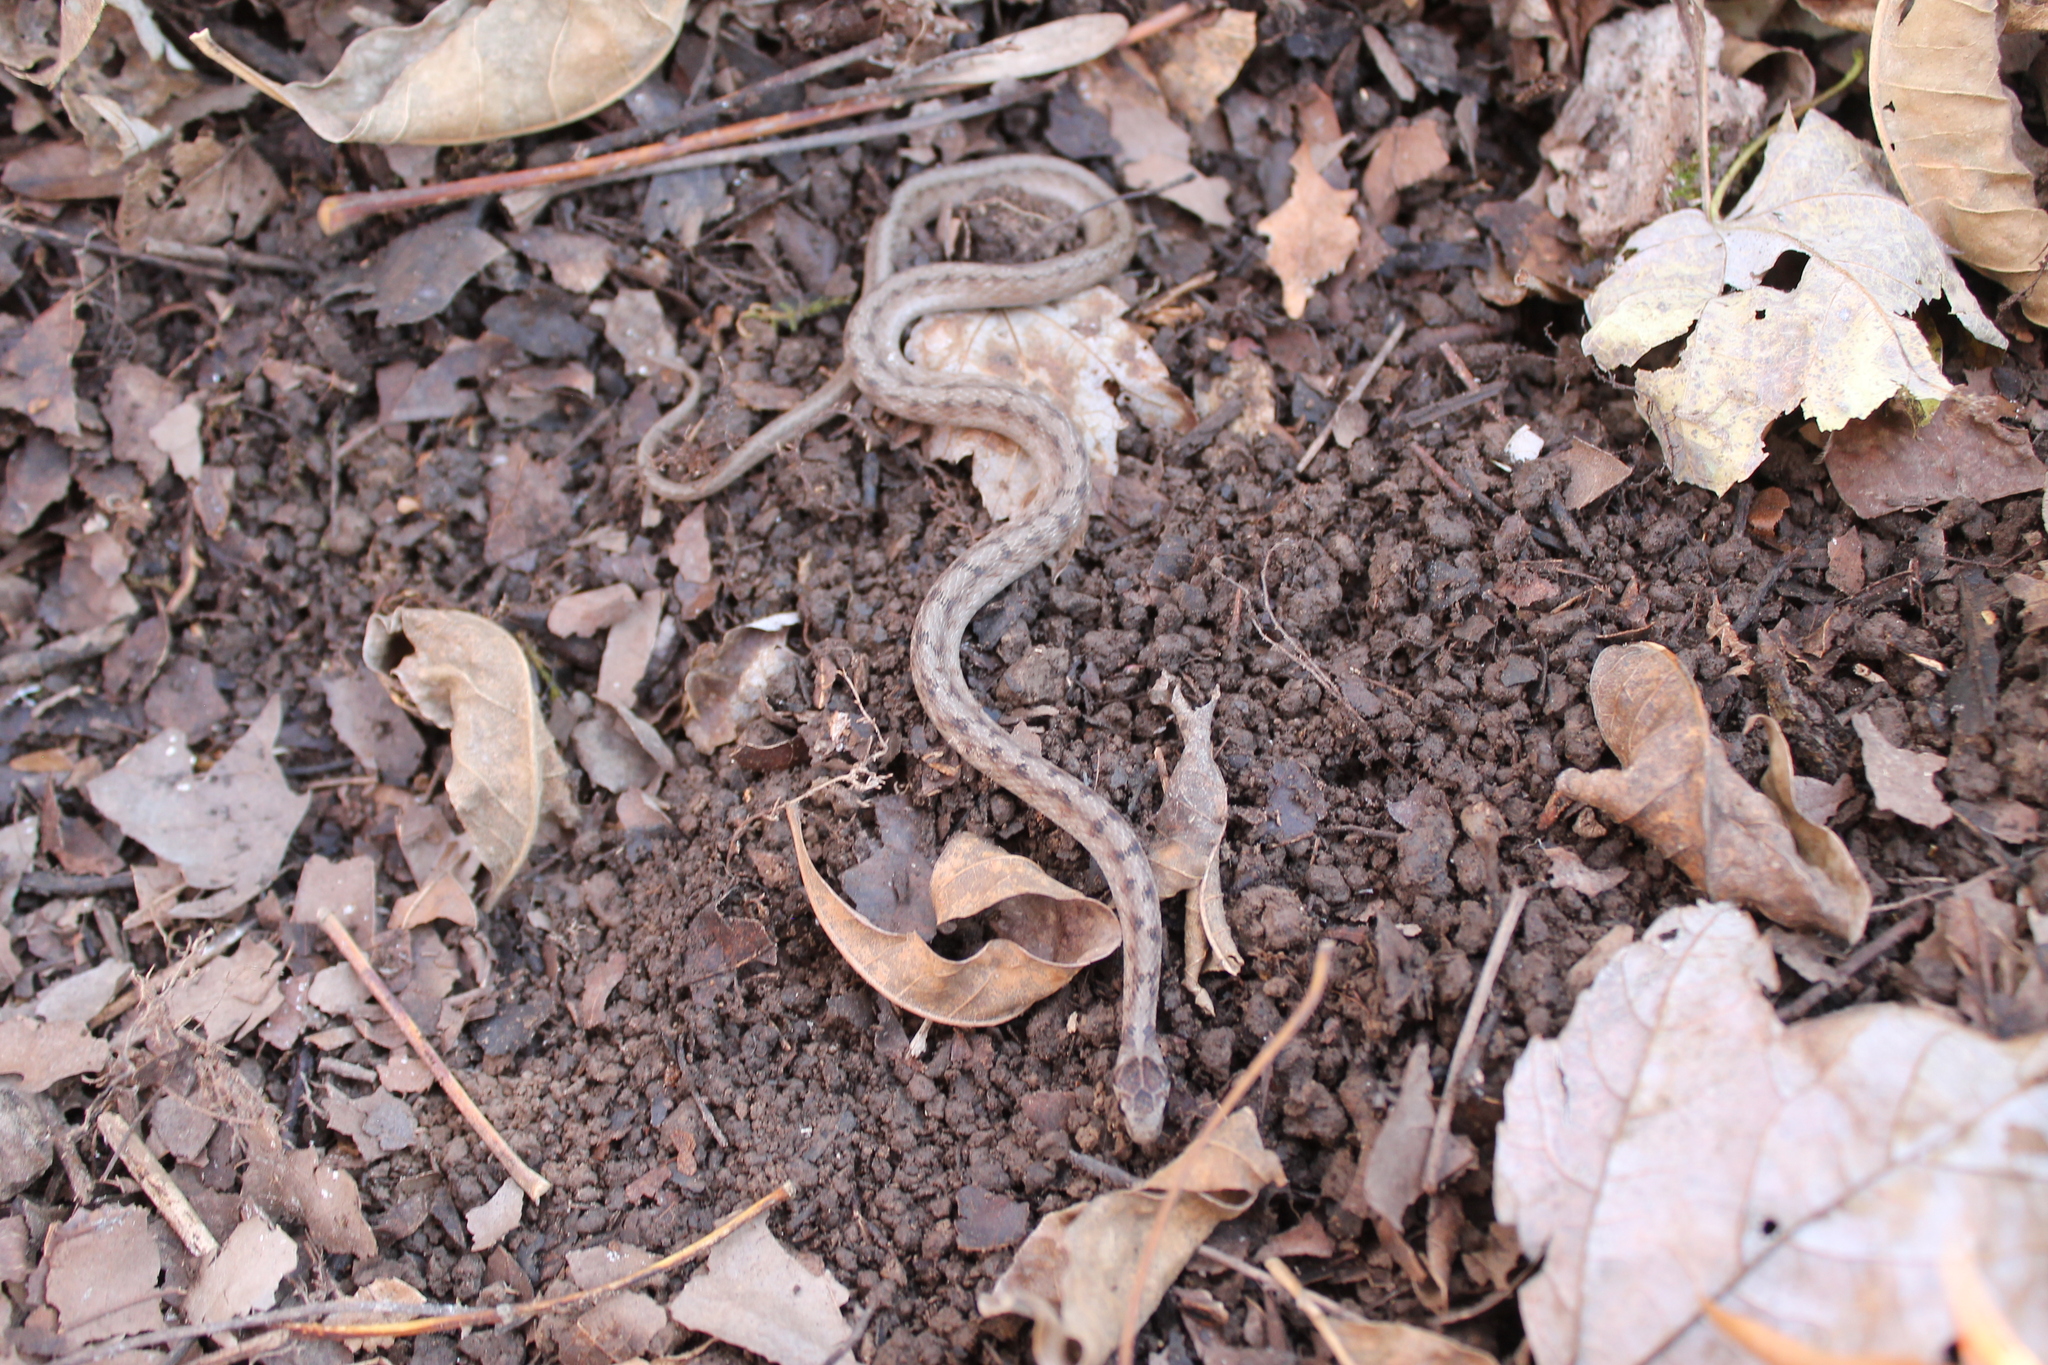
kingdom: Animalia
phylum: Chordata
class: Squamata
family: Colubridae
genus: Storeria
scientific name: Storeria dekayi
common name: (dekay’s) brown snake
